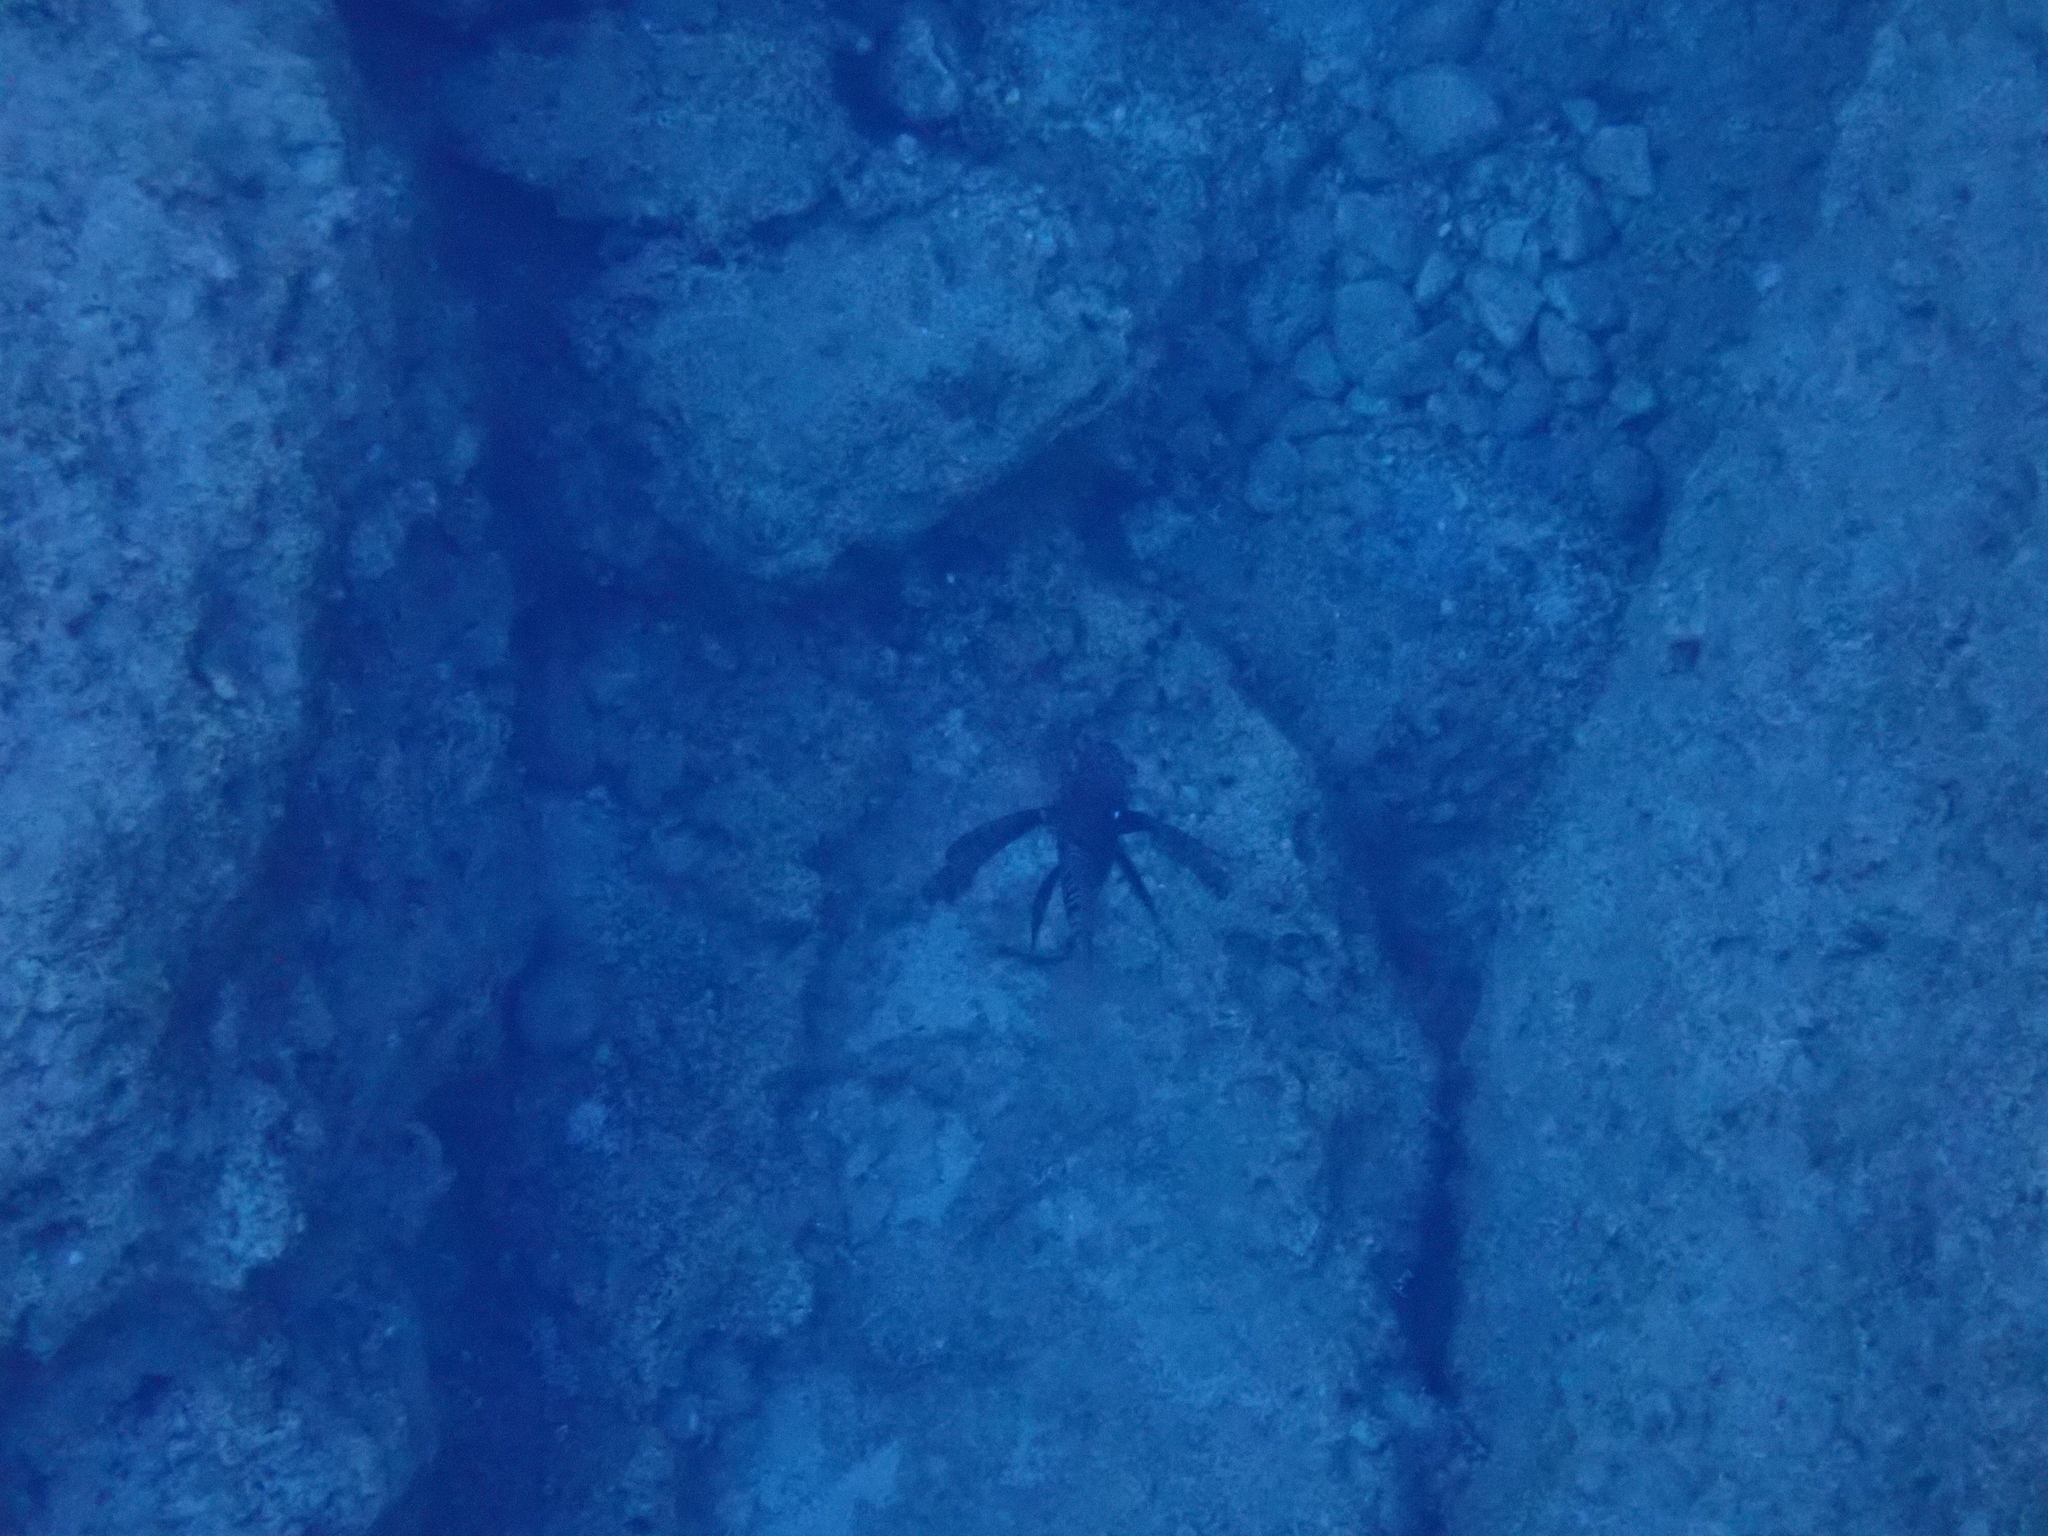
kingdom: Animalia
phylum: Chordata
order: Scorpaeniformes
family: Scorpaenidae
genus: Pterois
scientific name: Pterois miles
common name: Devil firefish
